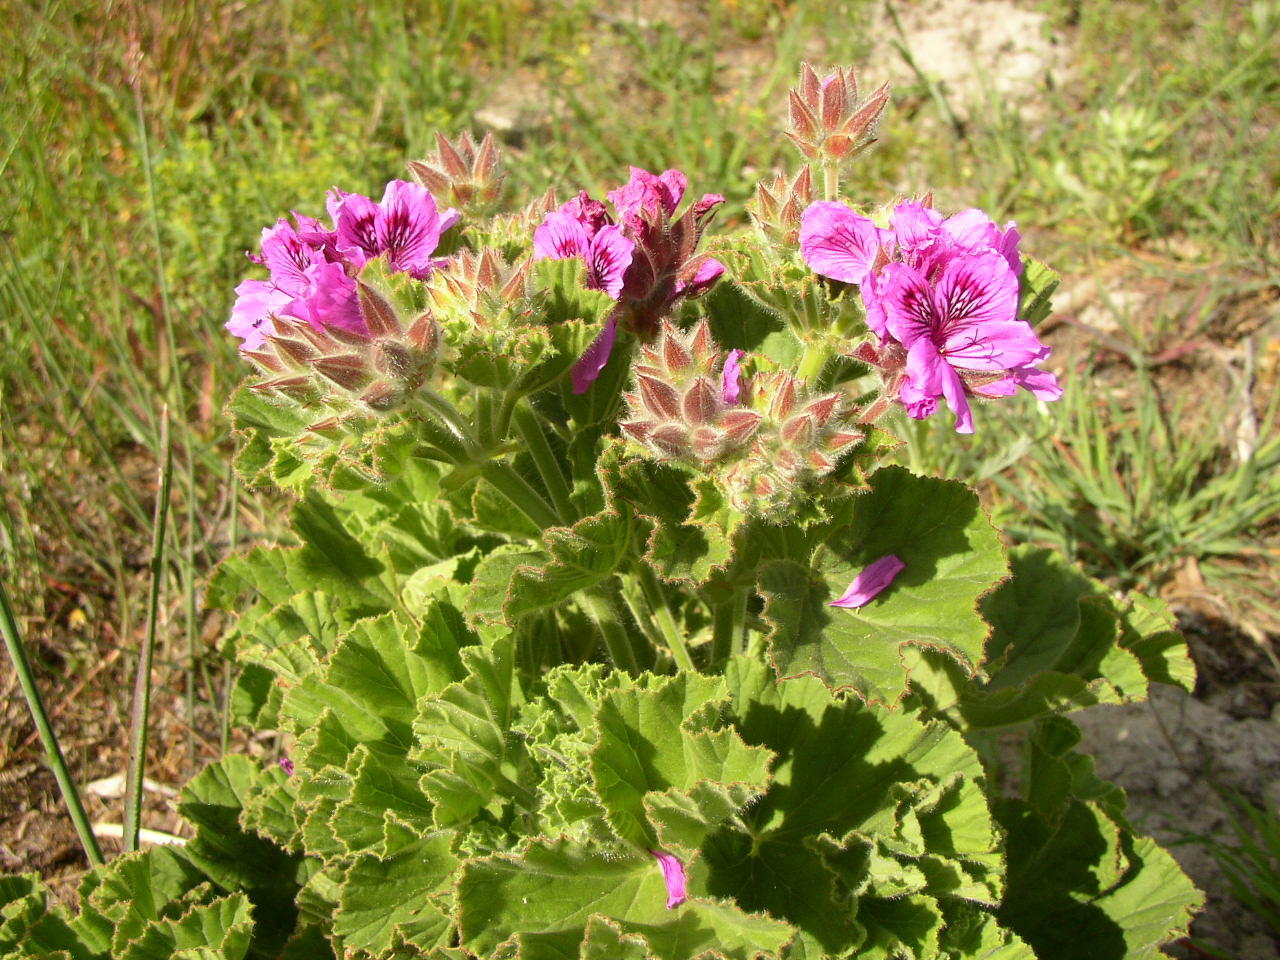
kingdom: Plantae
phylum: Tracheophyta
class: Magnoliopsida
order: Geraniales
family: Geraniaceae
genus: Pelargonium
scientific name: Pelargonium cucullatum
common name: Tree pelargonium
